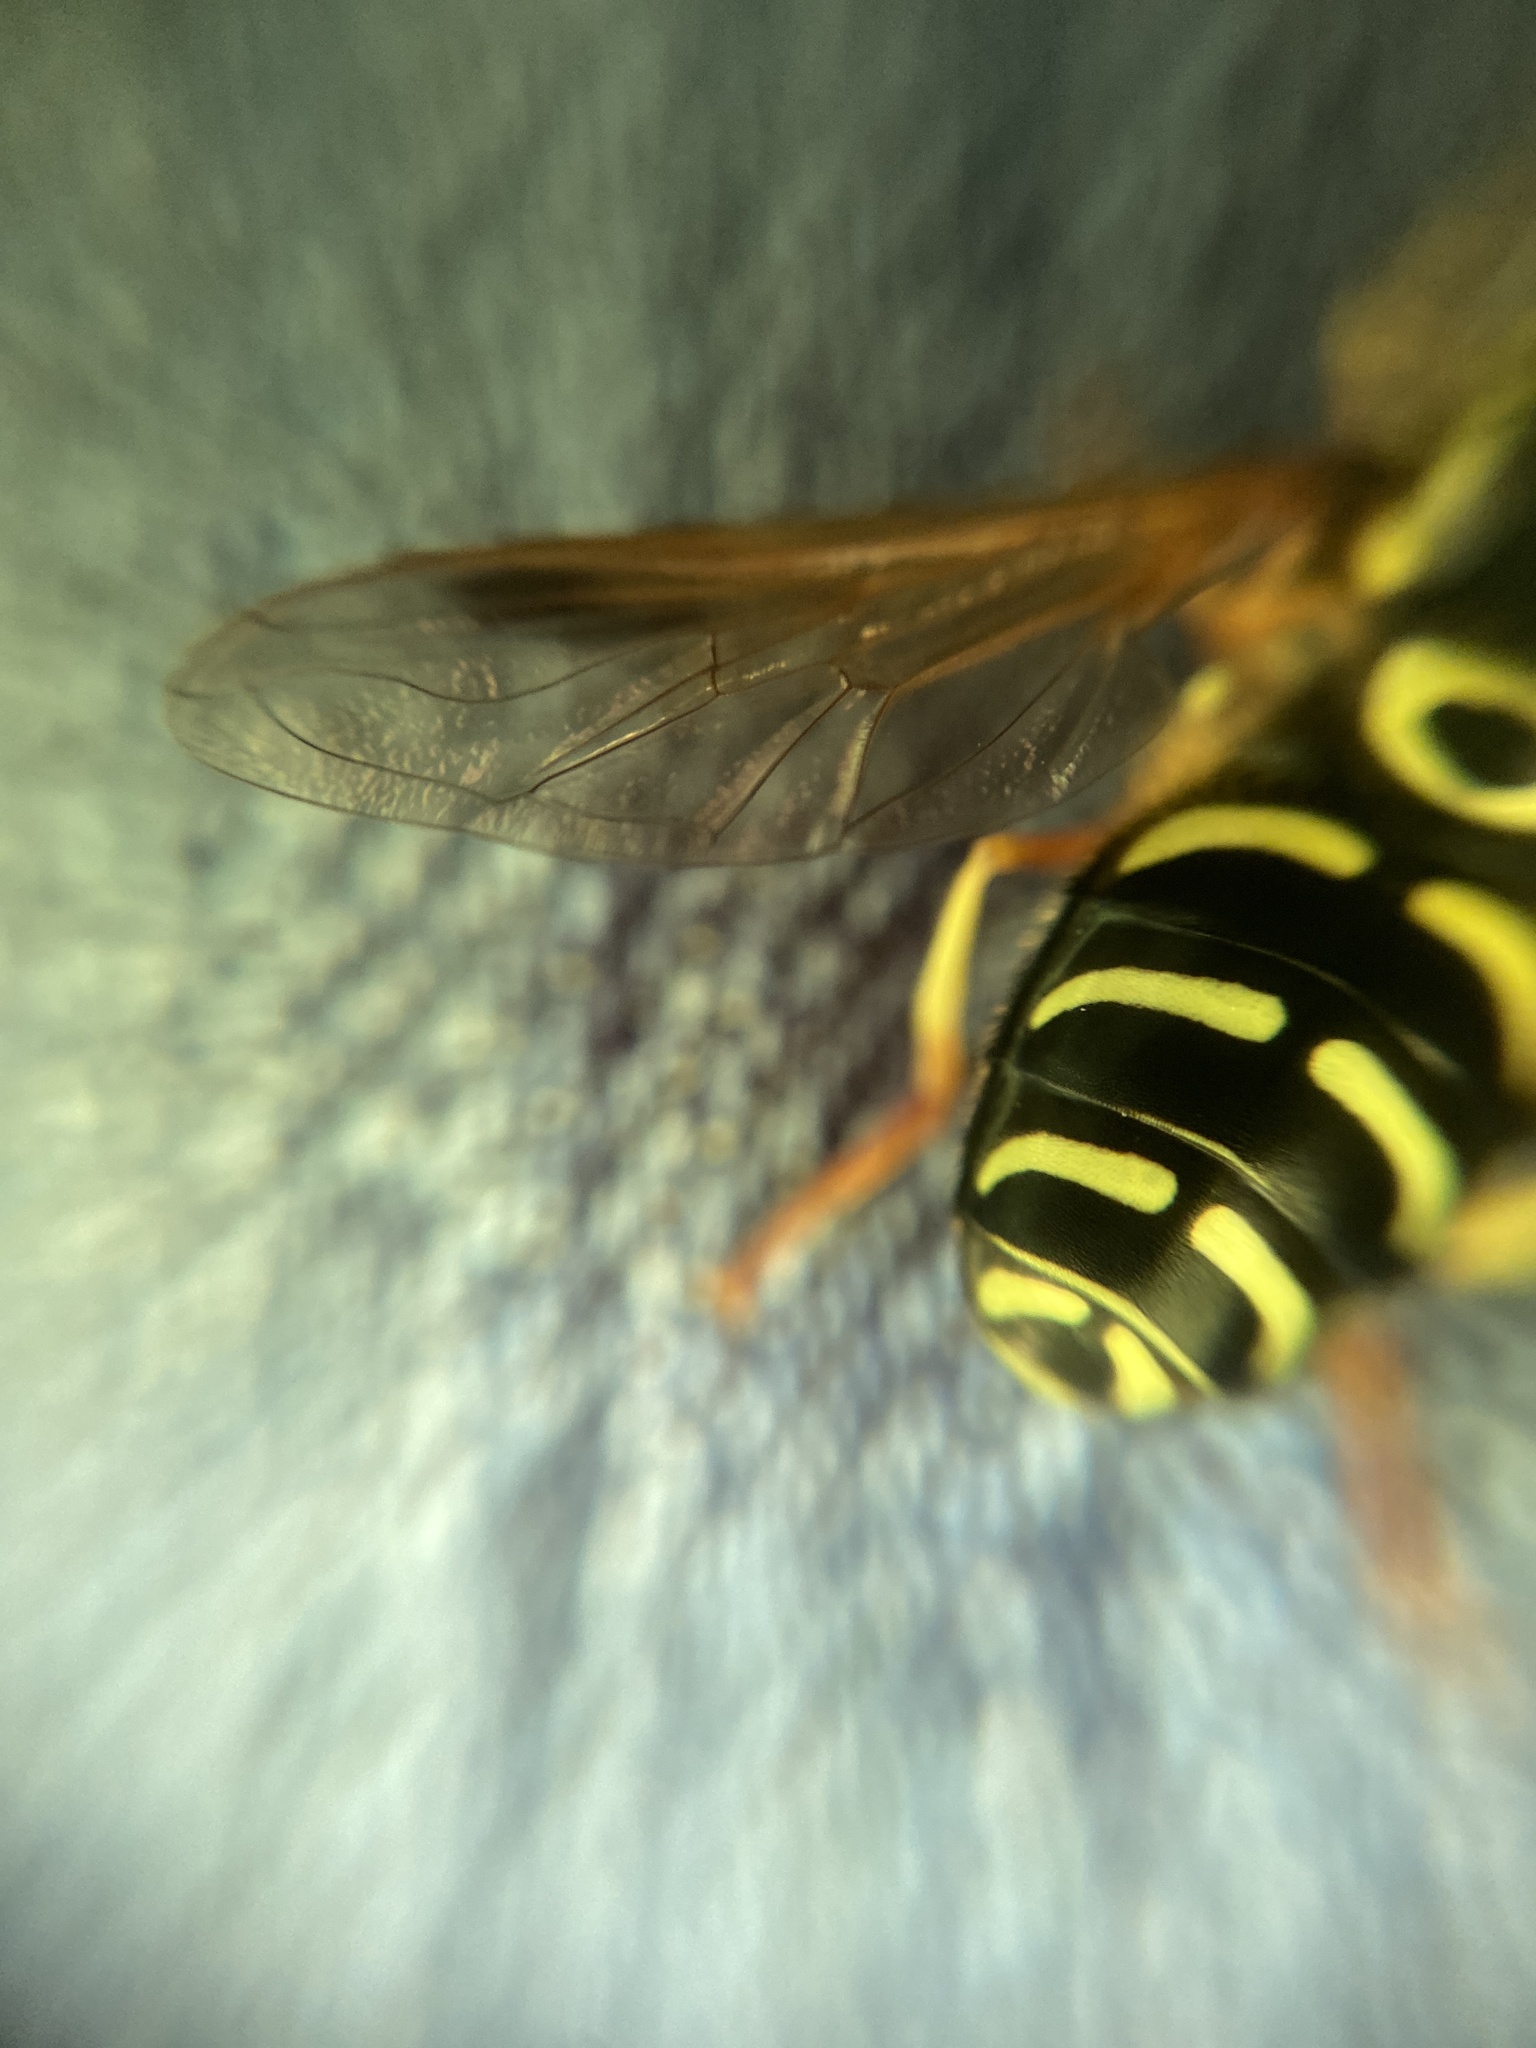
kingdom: Animalia
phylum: Arthropoda
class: Insecta
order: Diptera
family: Syrphidae
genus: Chrysotoxum
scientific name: Chrysotoxum festivum
